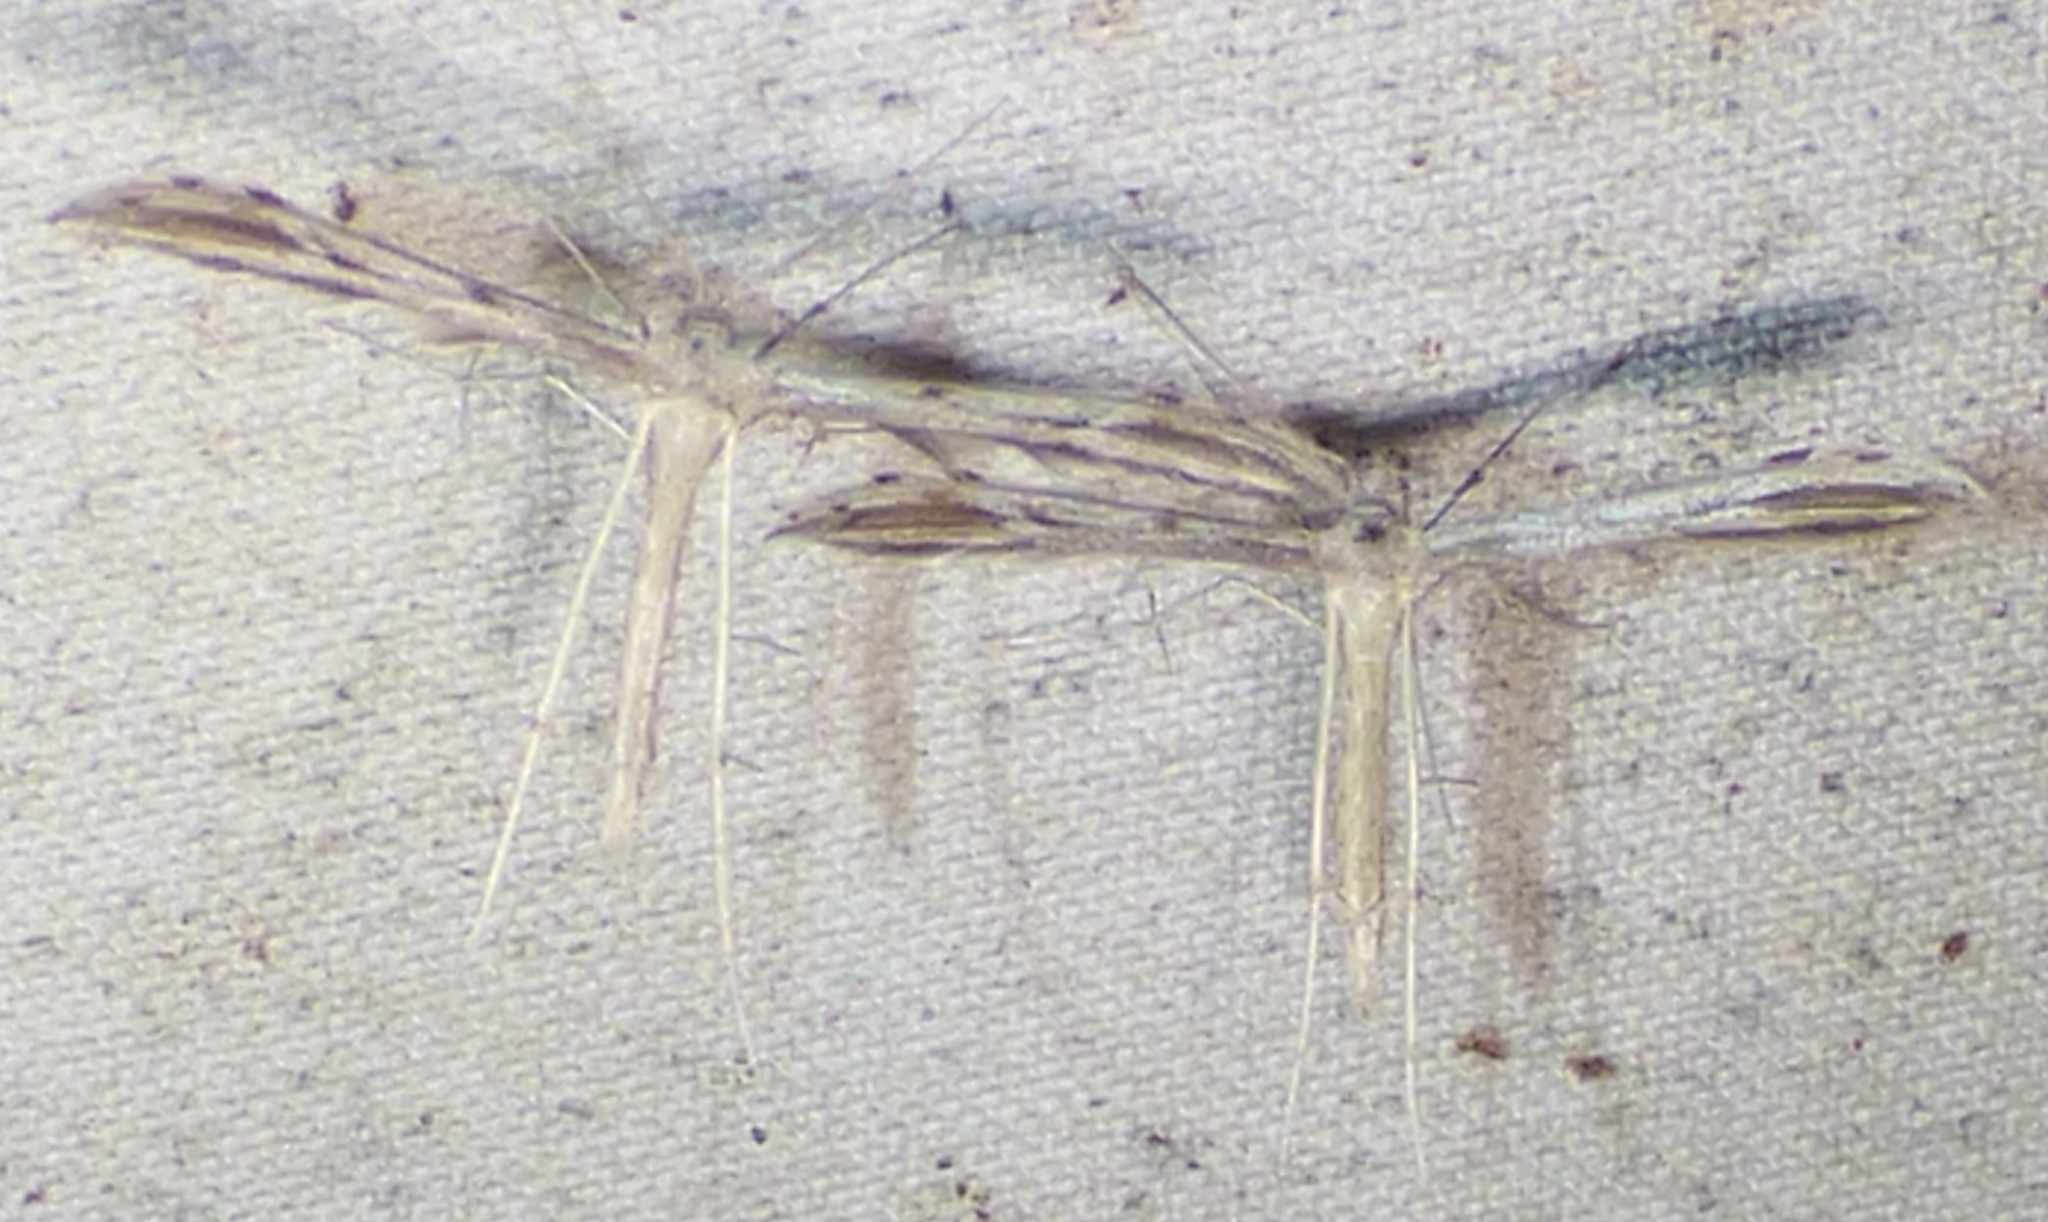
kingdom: Animalia
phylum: Arthropoda
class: Insecta
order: Lepidoptera
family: Pterophoridae
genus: Pselnophorus
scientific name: Pselnophorus belfragei
